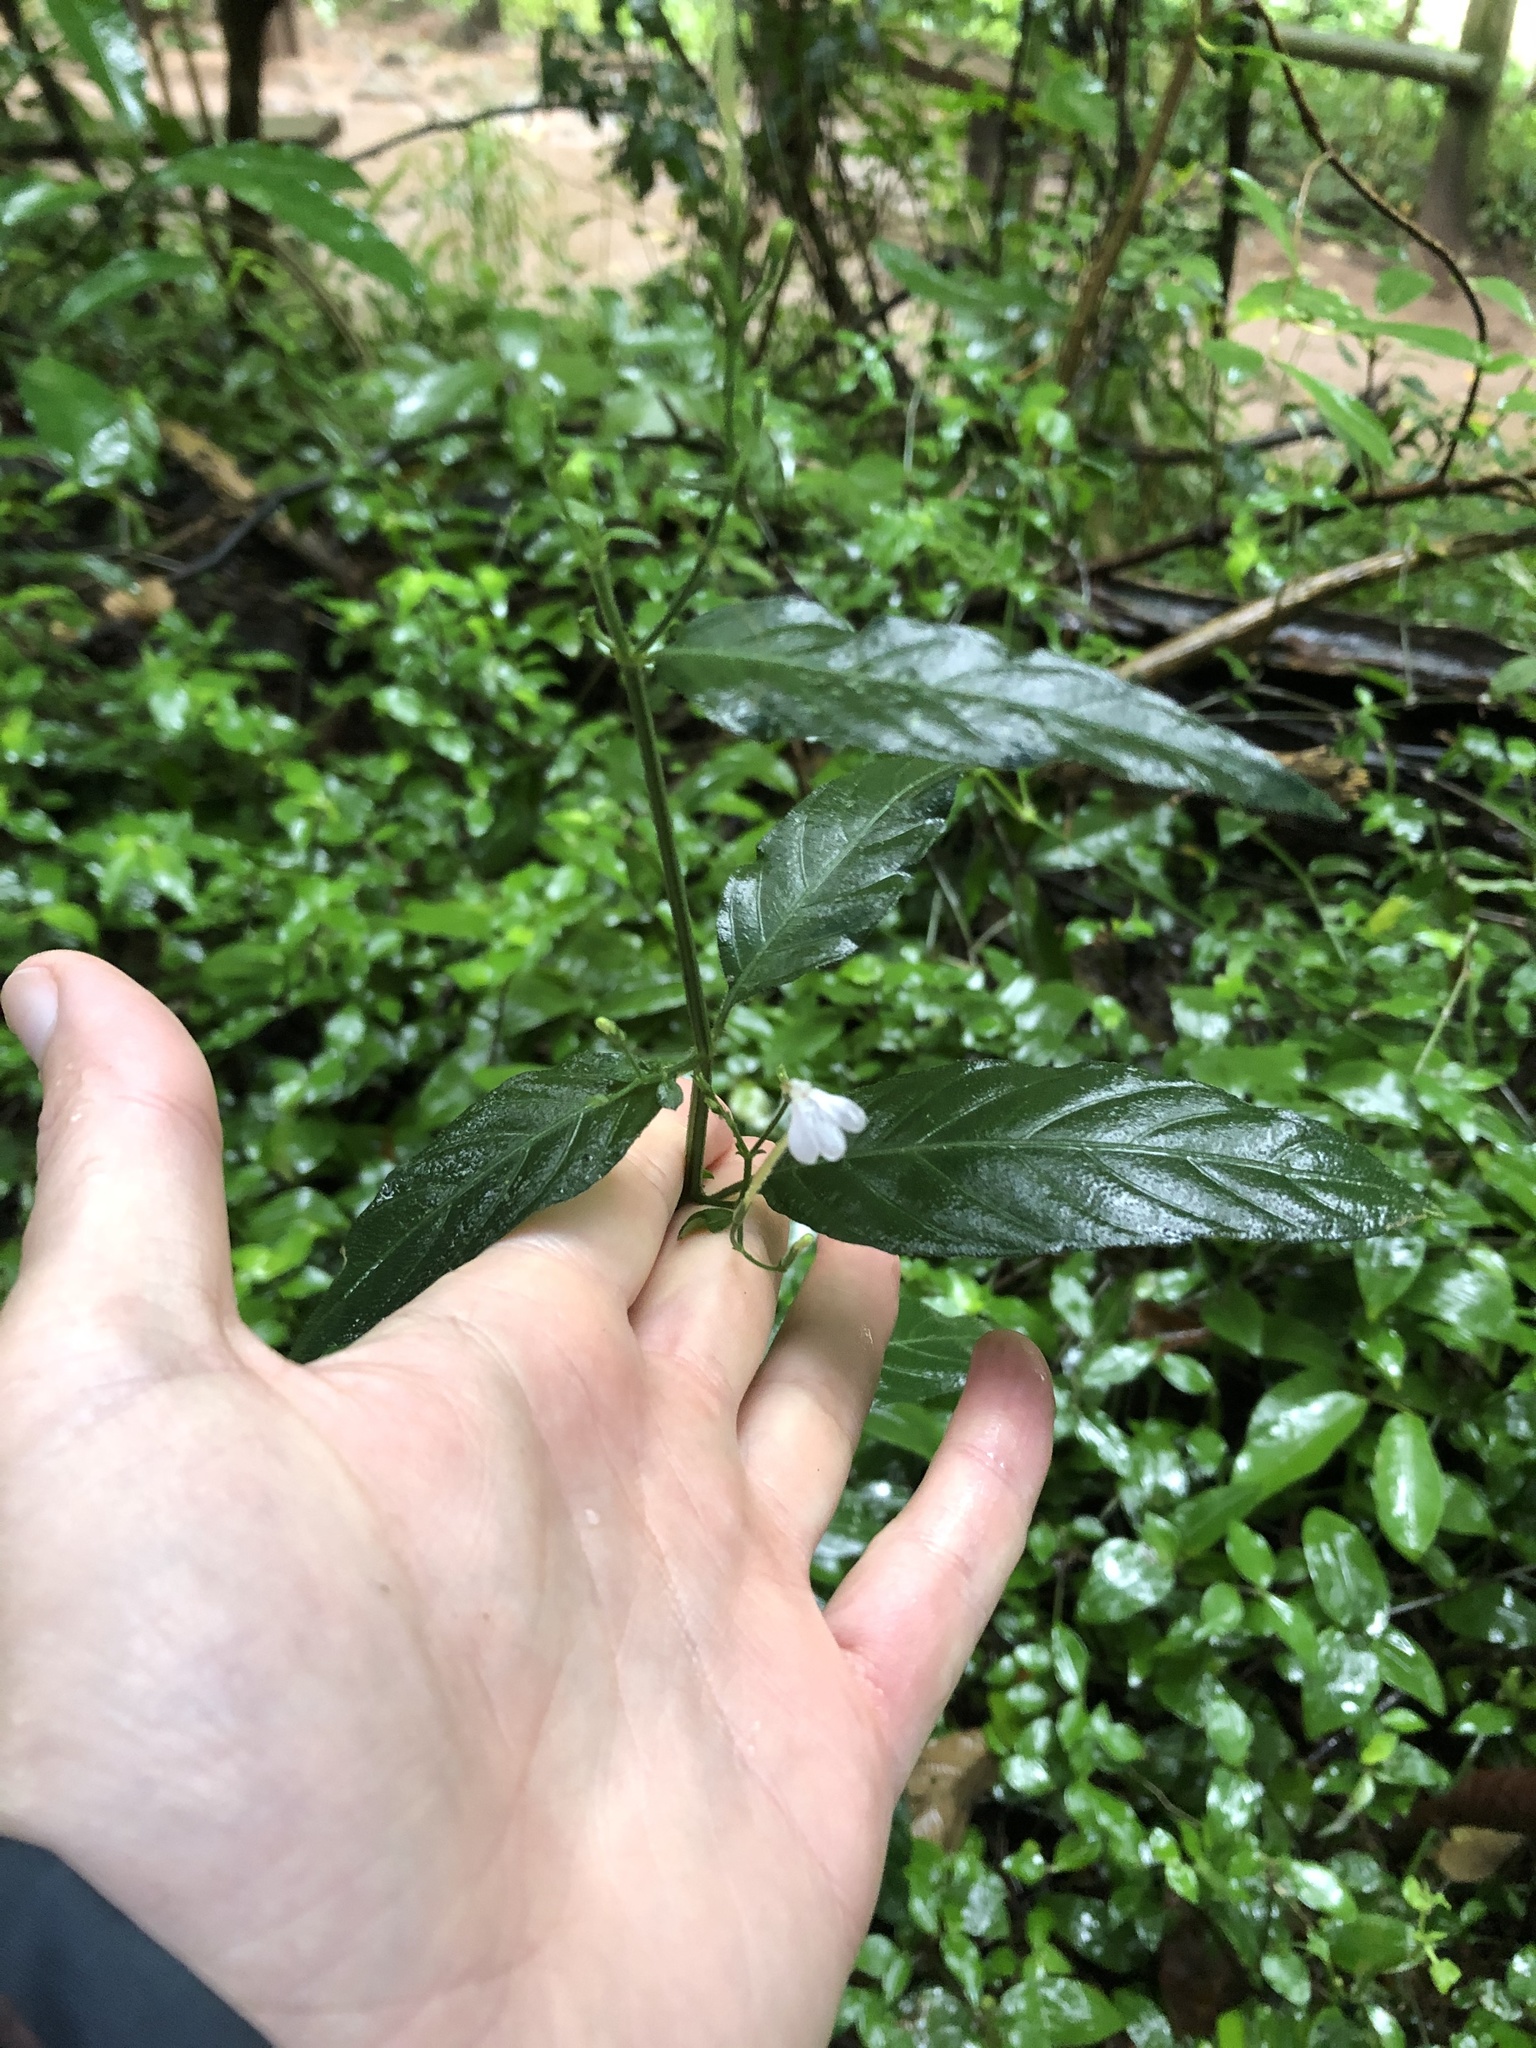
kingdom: Plantae
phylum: Tracheophyta
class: Magnoliopsida
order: Lamiales
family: Acanthaceae
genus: Rhinacanthus
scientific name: Rhinacanthus gracilis
